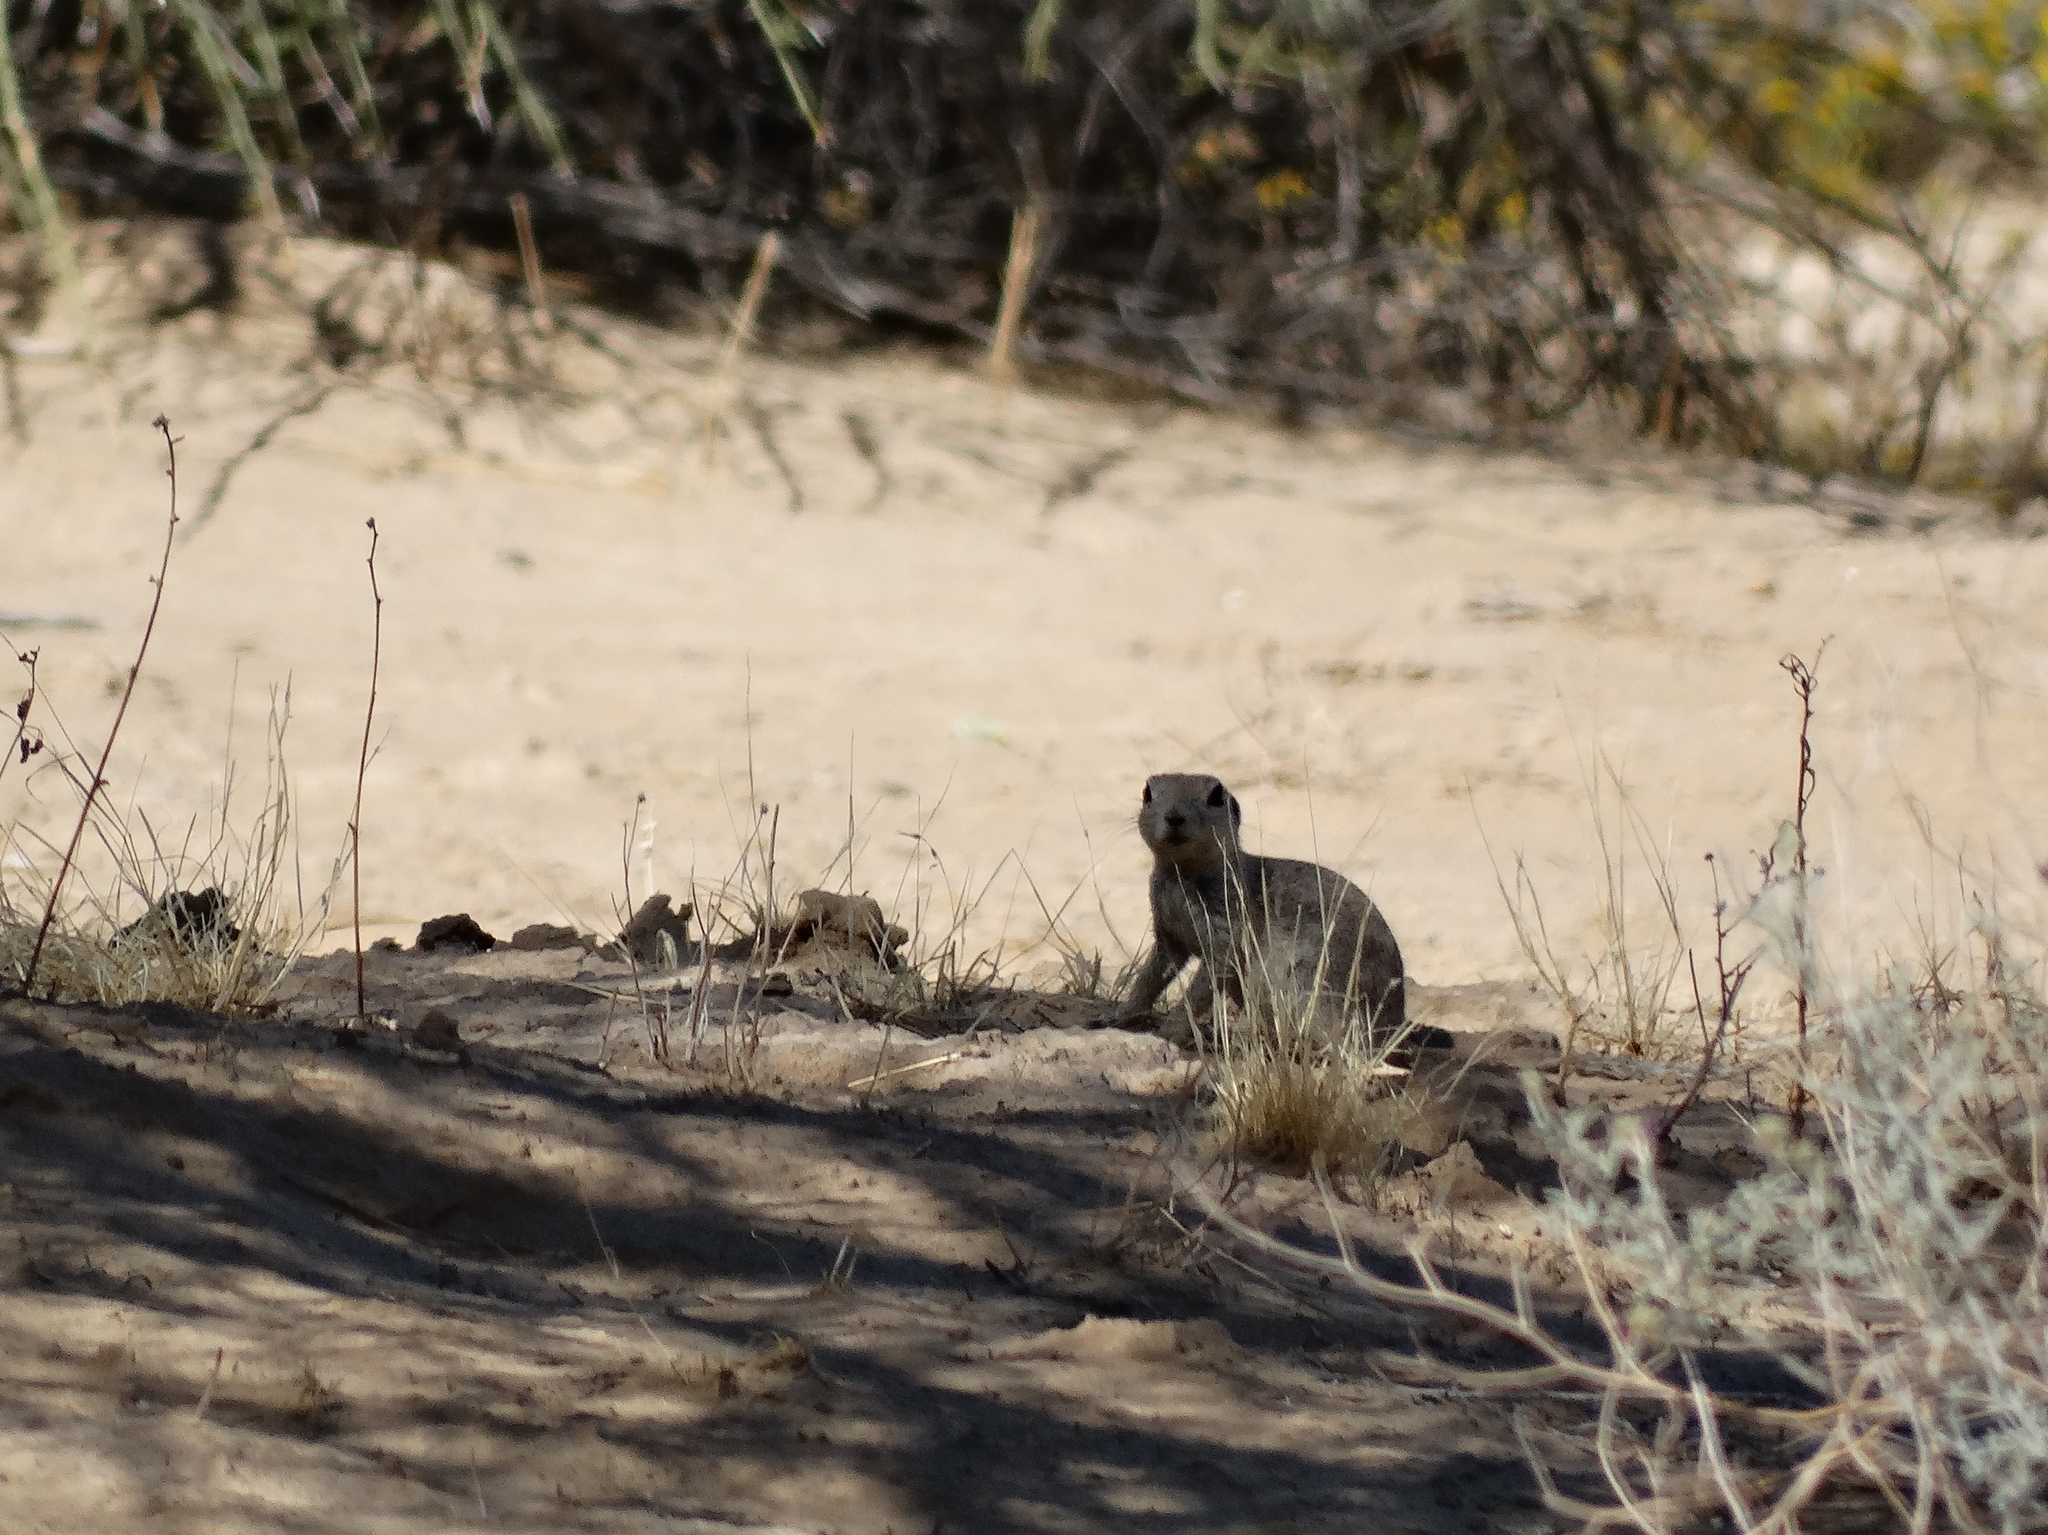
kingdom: Animalia
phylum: Chordata
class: Mammalia
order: Rodentia
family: Sciuridae
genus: Xerospermophilus
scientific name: Xerospermophilus tereticaudus
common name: Round-tailed ground squirrel
